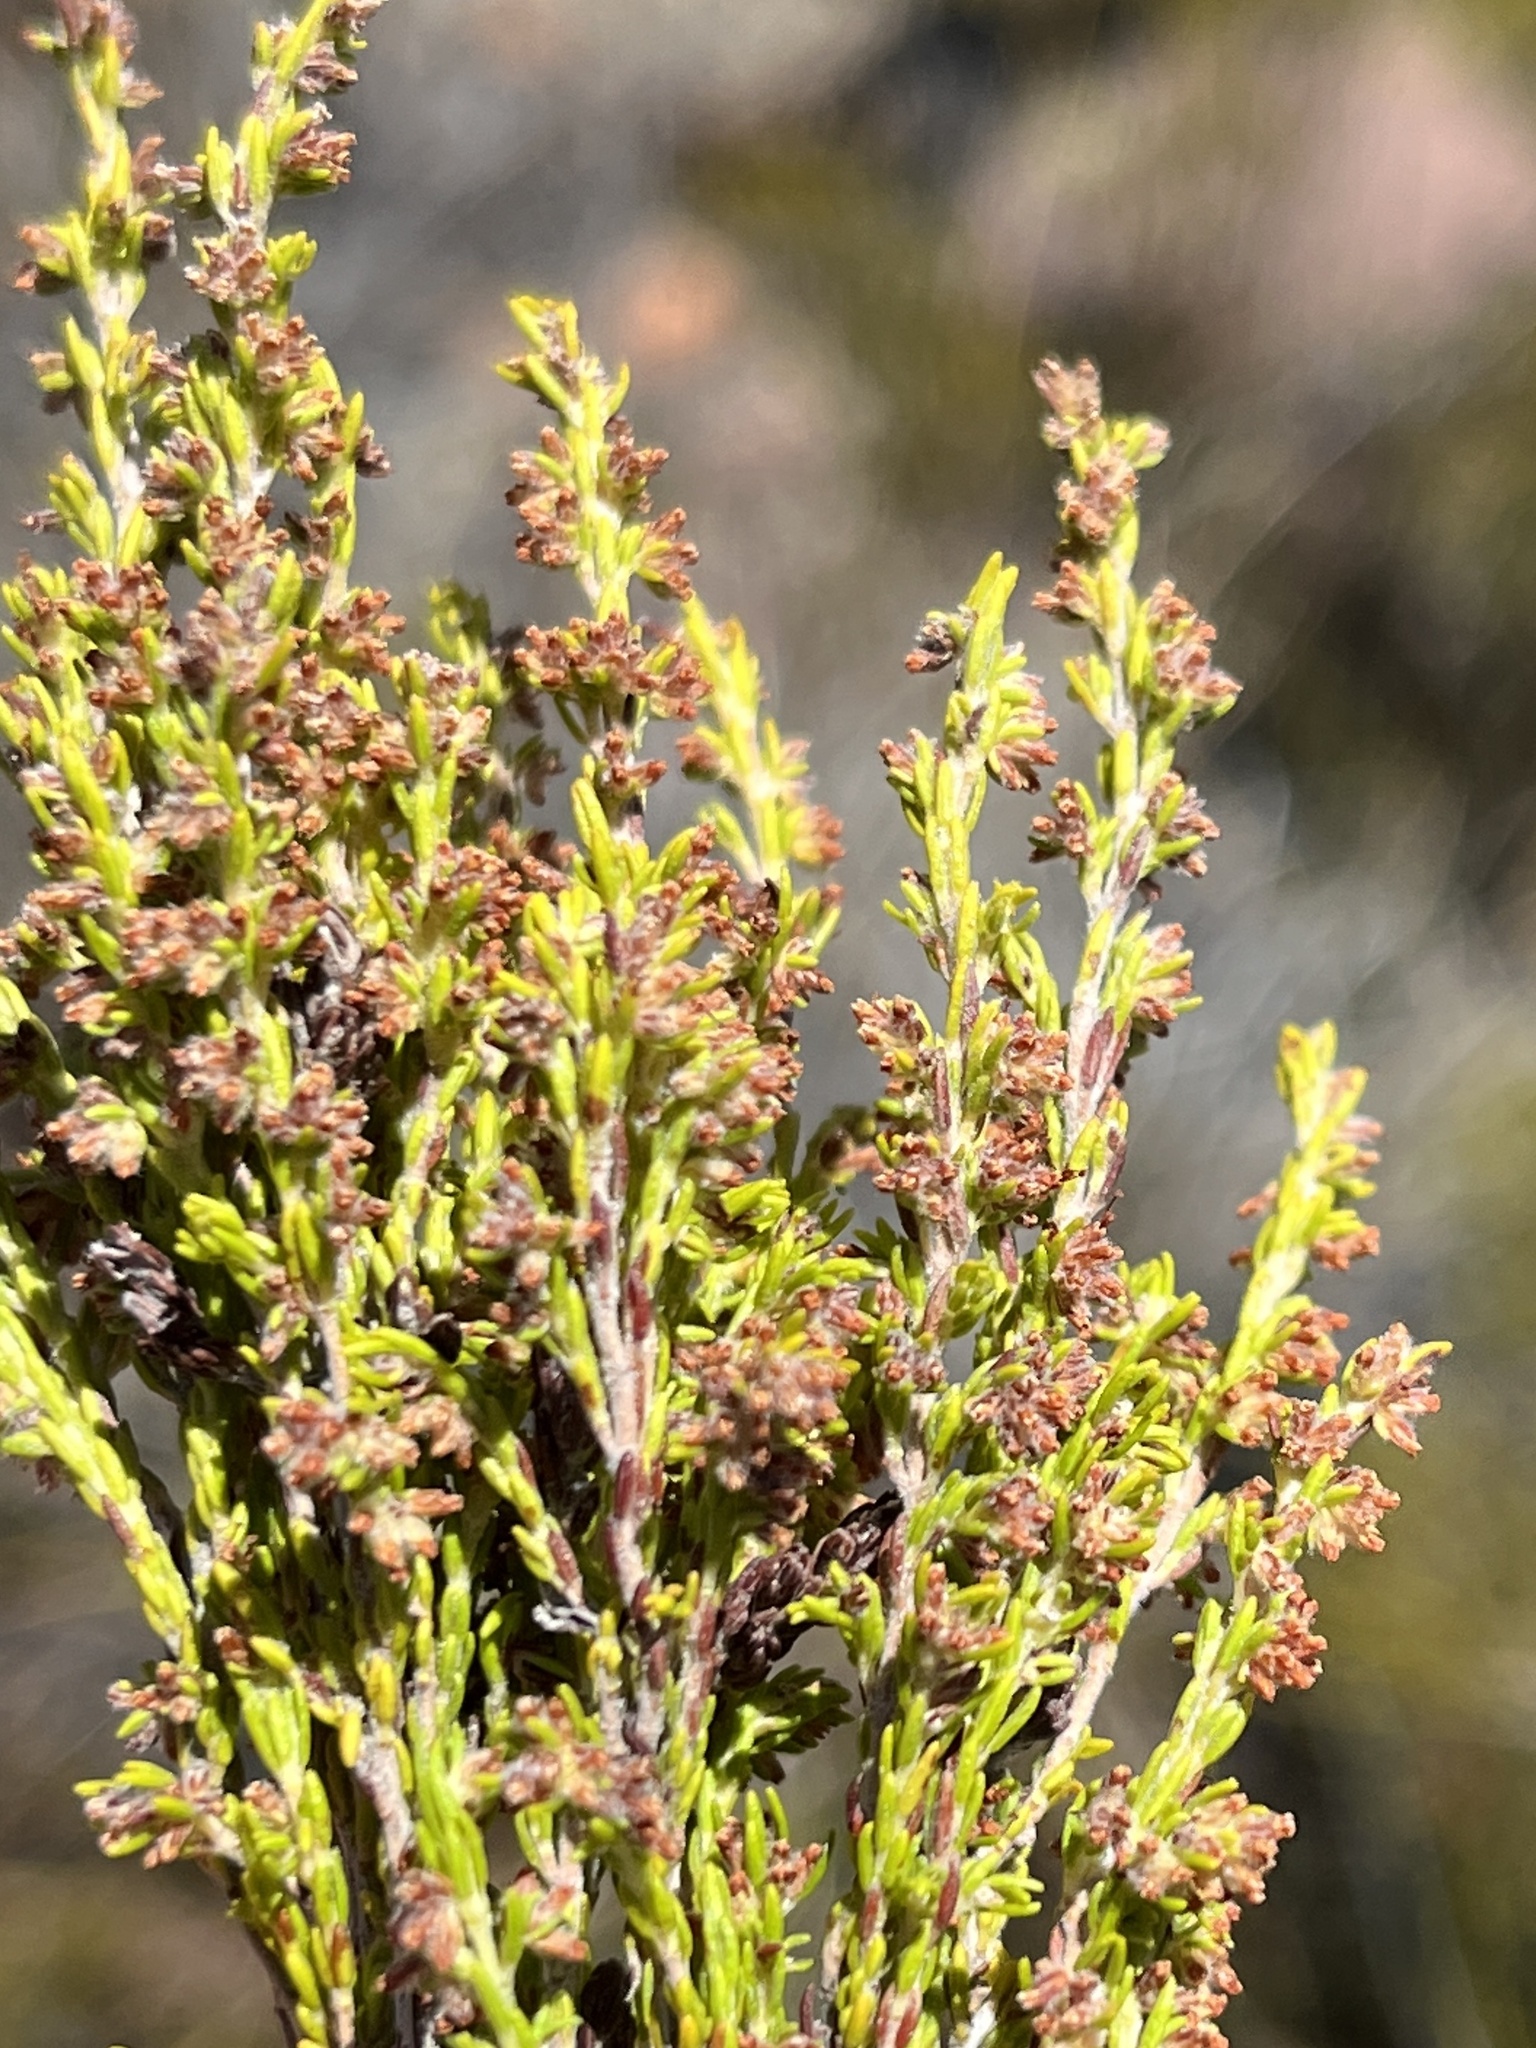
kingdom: Plantae
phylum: Tracheophyta
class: Magnoliopsida
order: Ericales
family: Ericaceae
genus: Erica
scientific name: Erica angulosa
